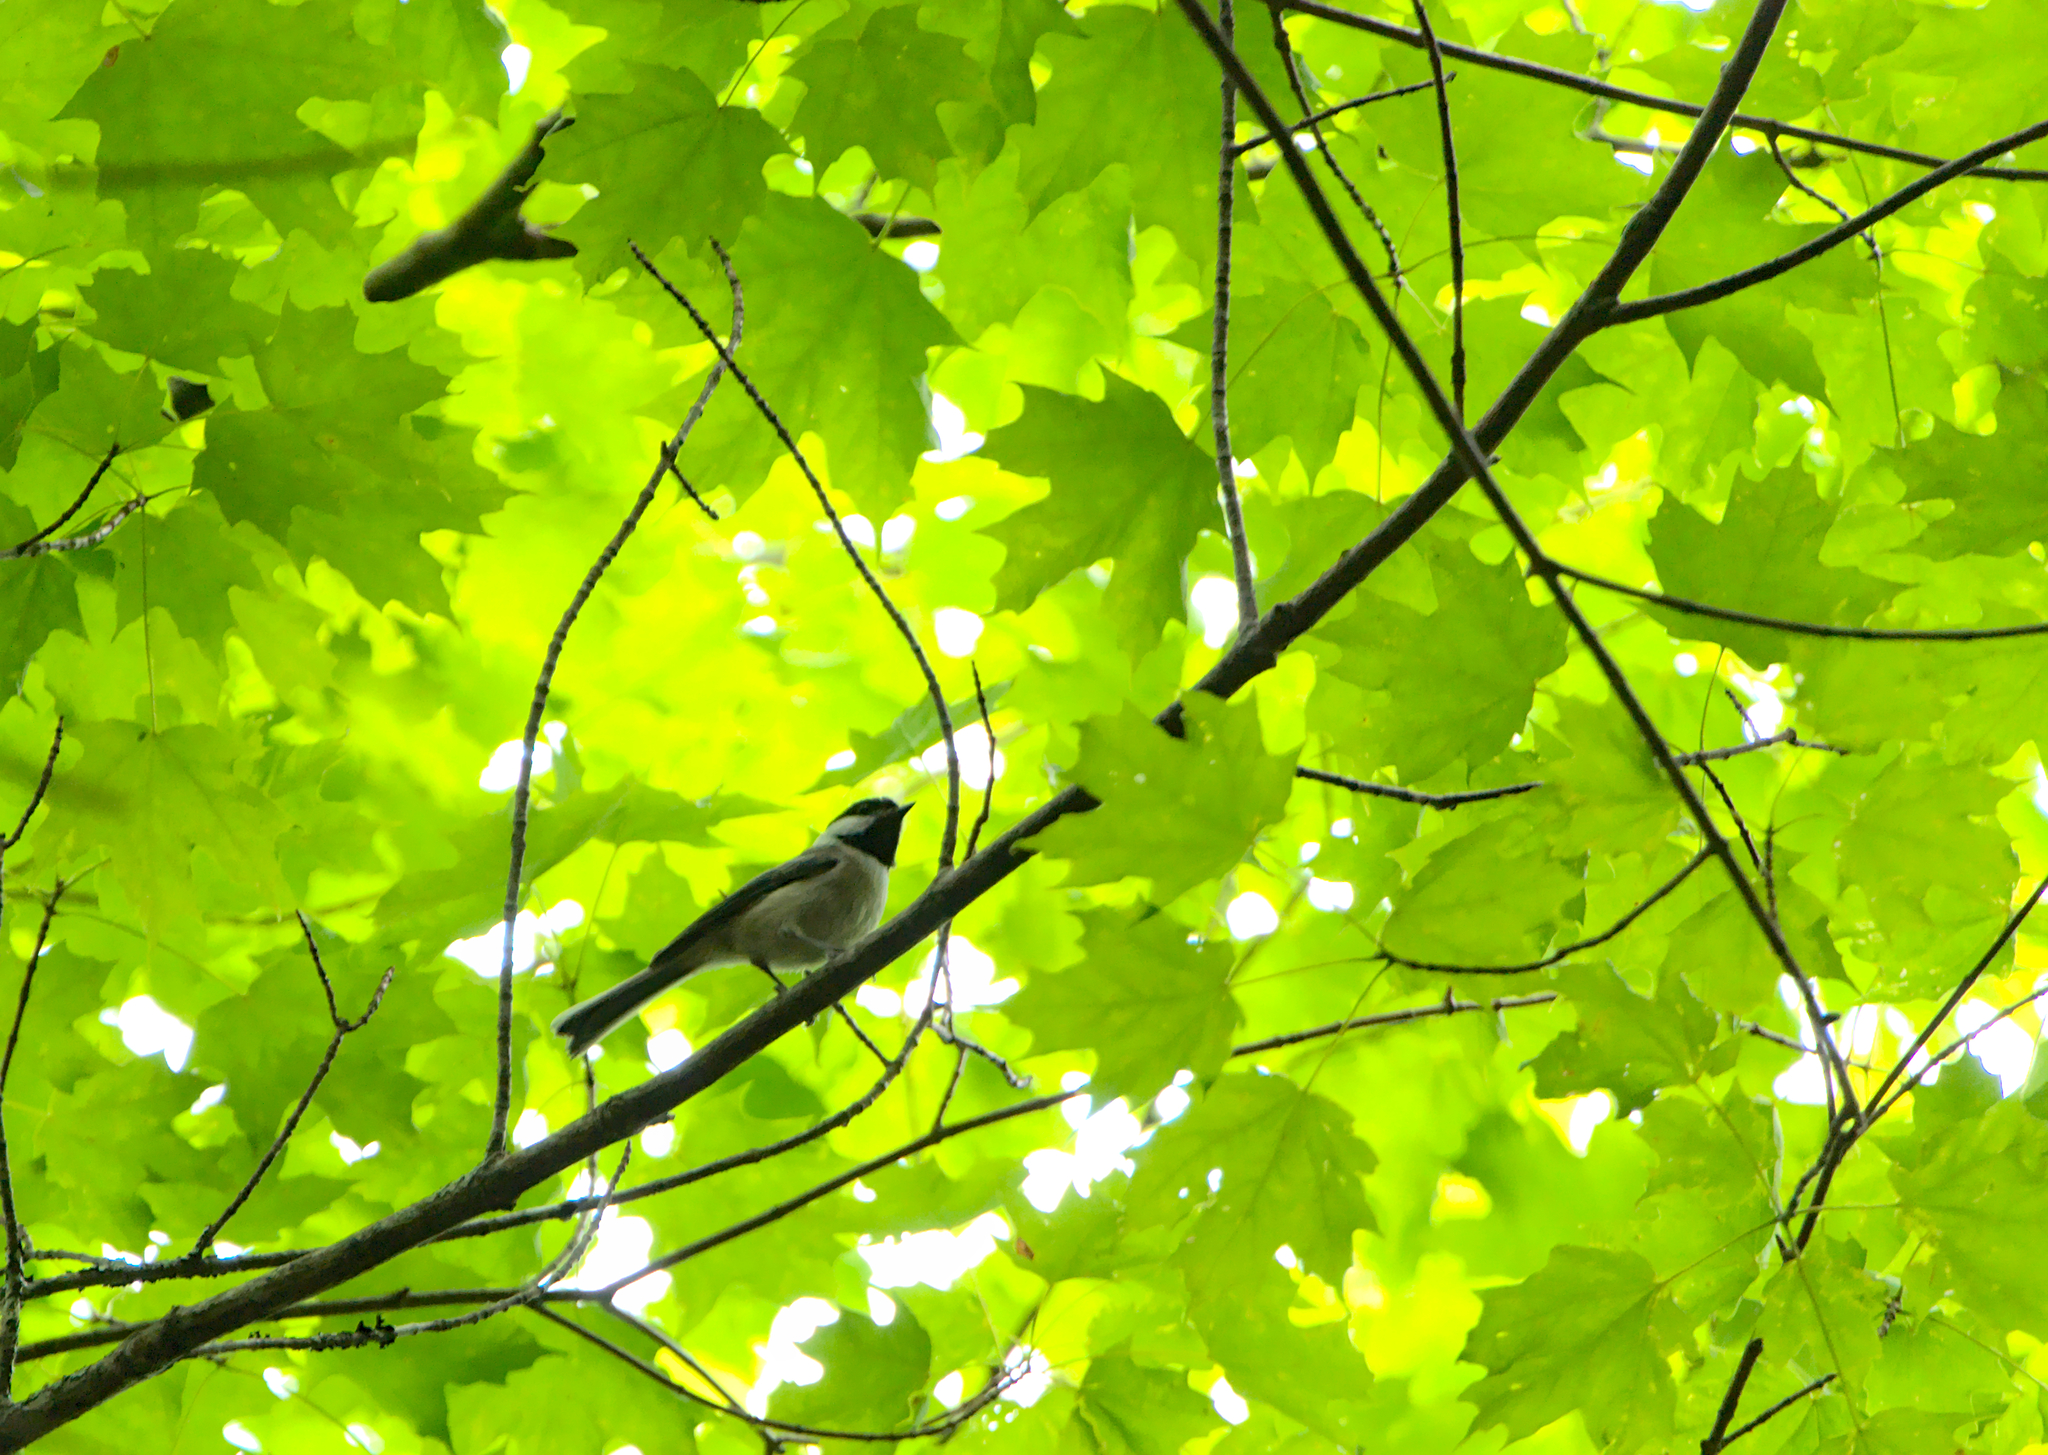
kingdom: Animalia
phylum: Chordata
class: Aves
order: Passeriformes
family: Paridae
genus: Poecile
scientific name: Poecile atricapillus
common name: Black-capped chickadee
